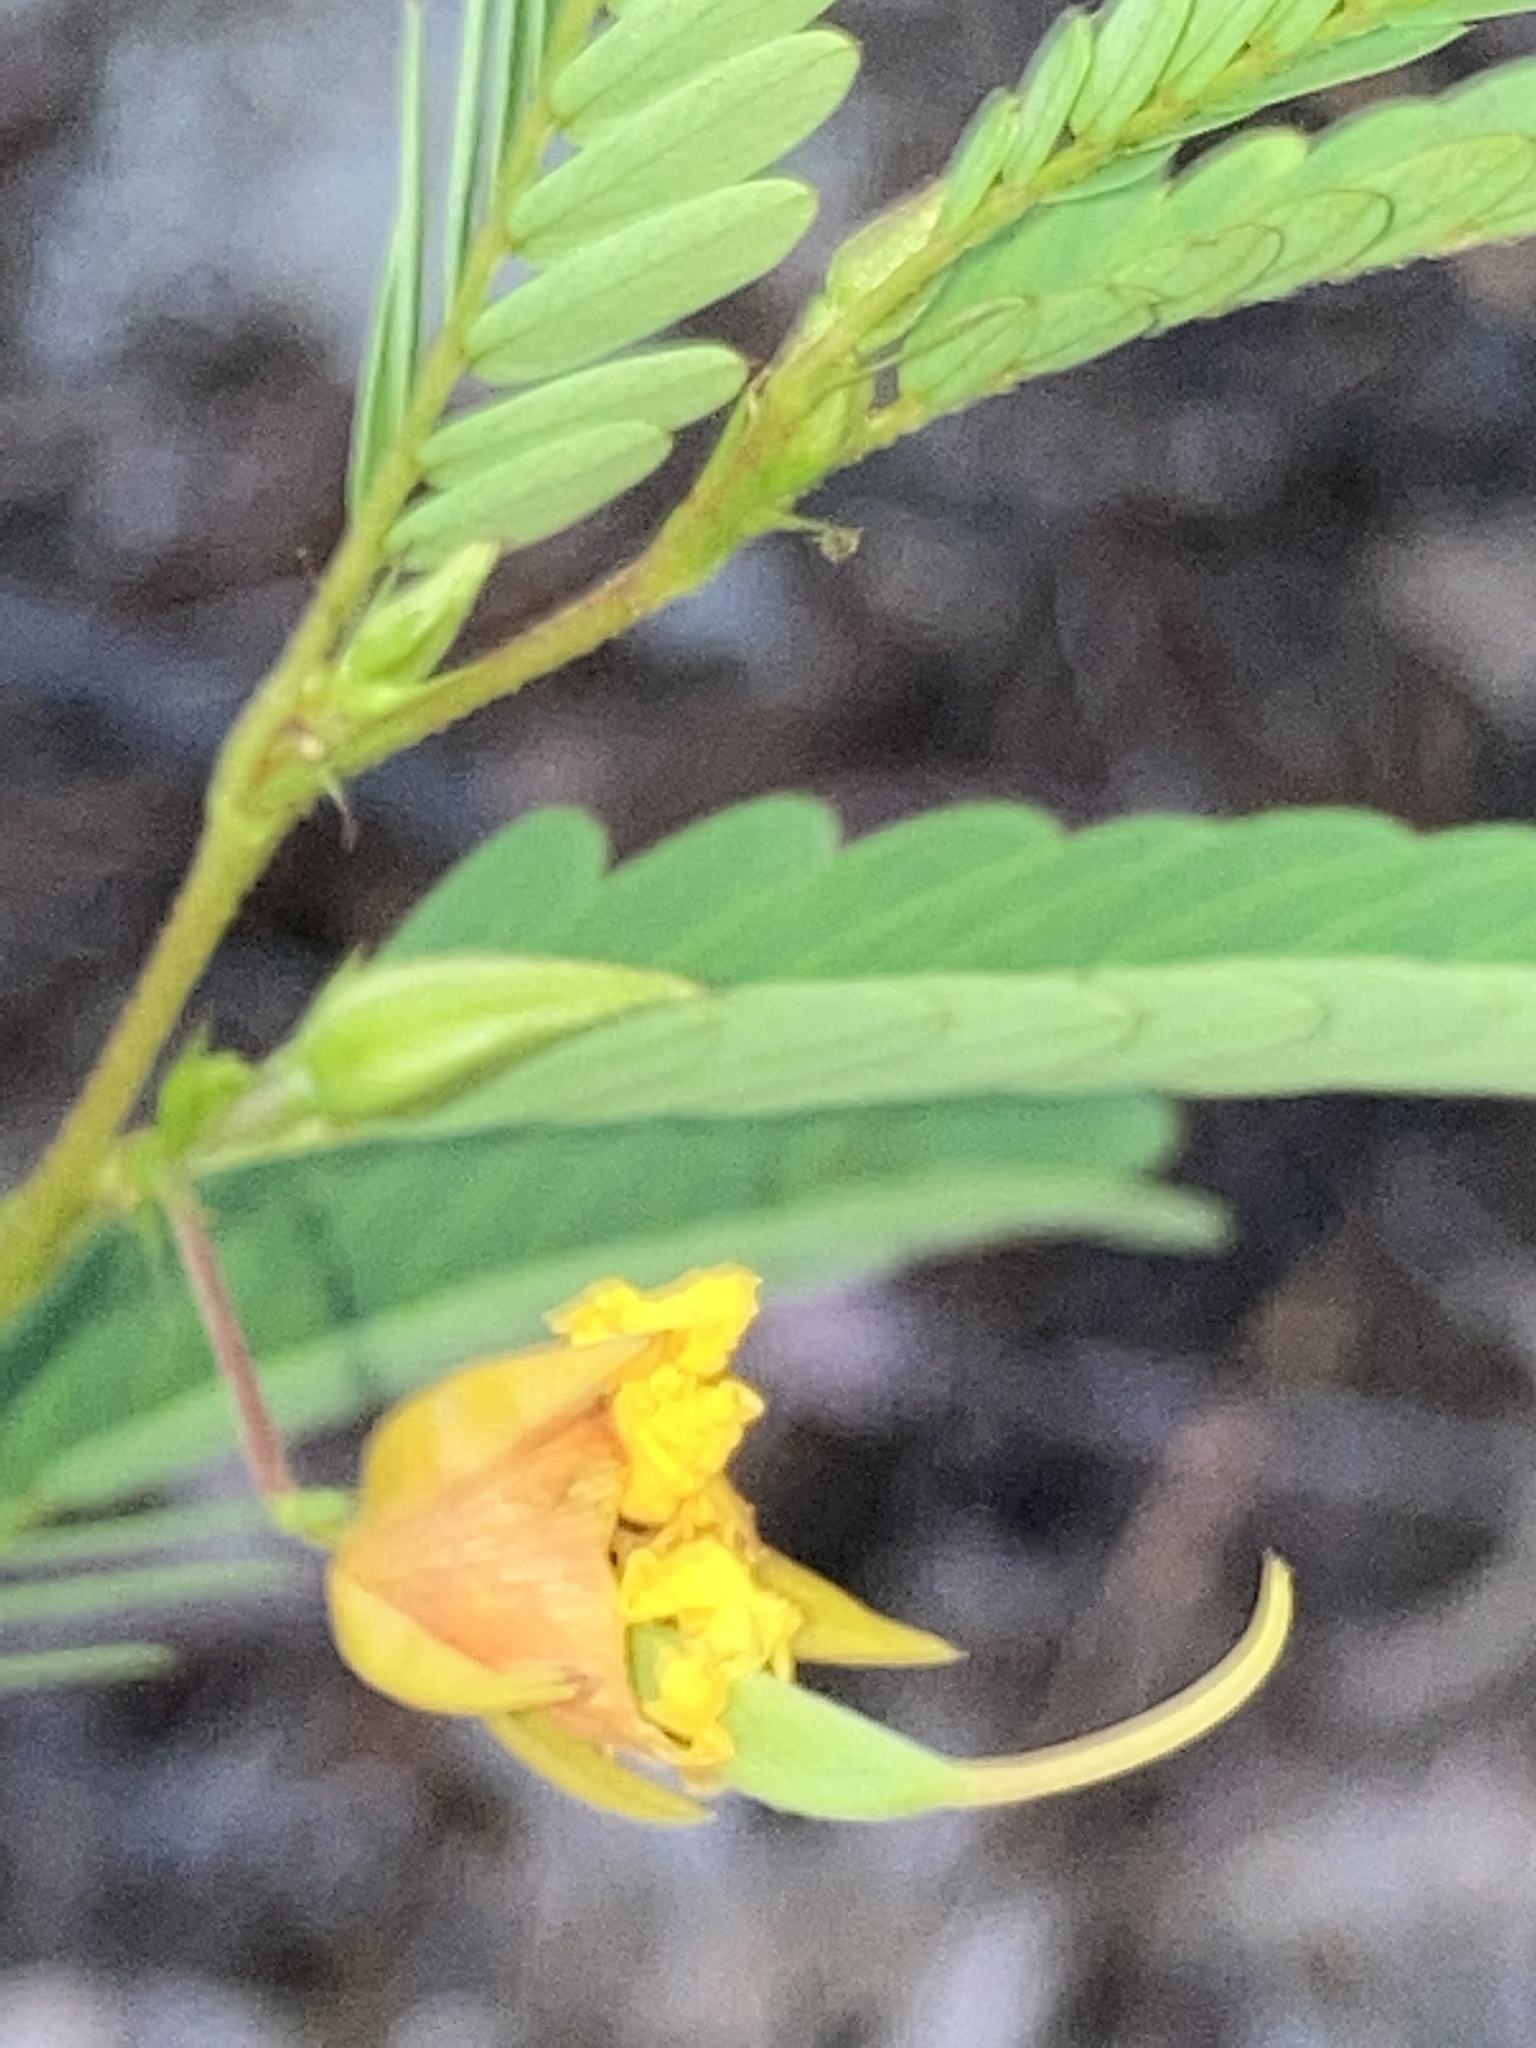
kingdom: Plantae
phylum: Tracheophyta
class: Magnoliopsida
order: Fabales
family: Fabaceae
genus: Chamaecrista
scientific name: Chamaecrista fasciculata
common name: Golden cassia
